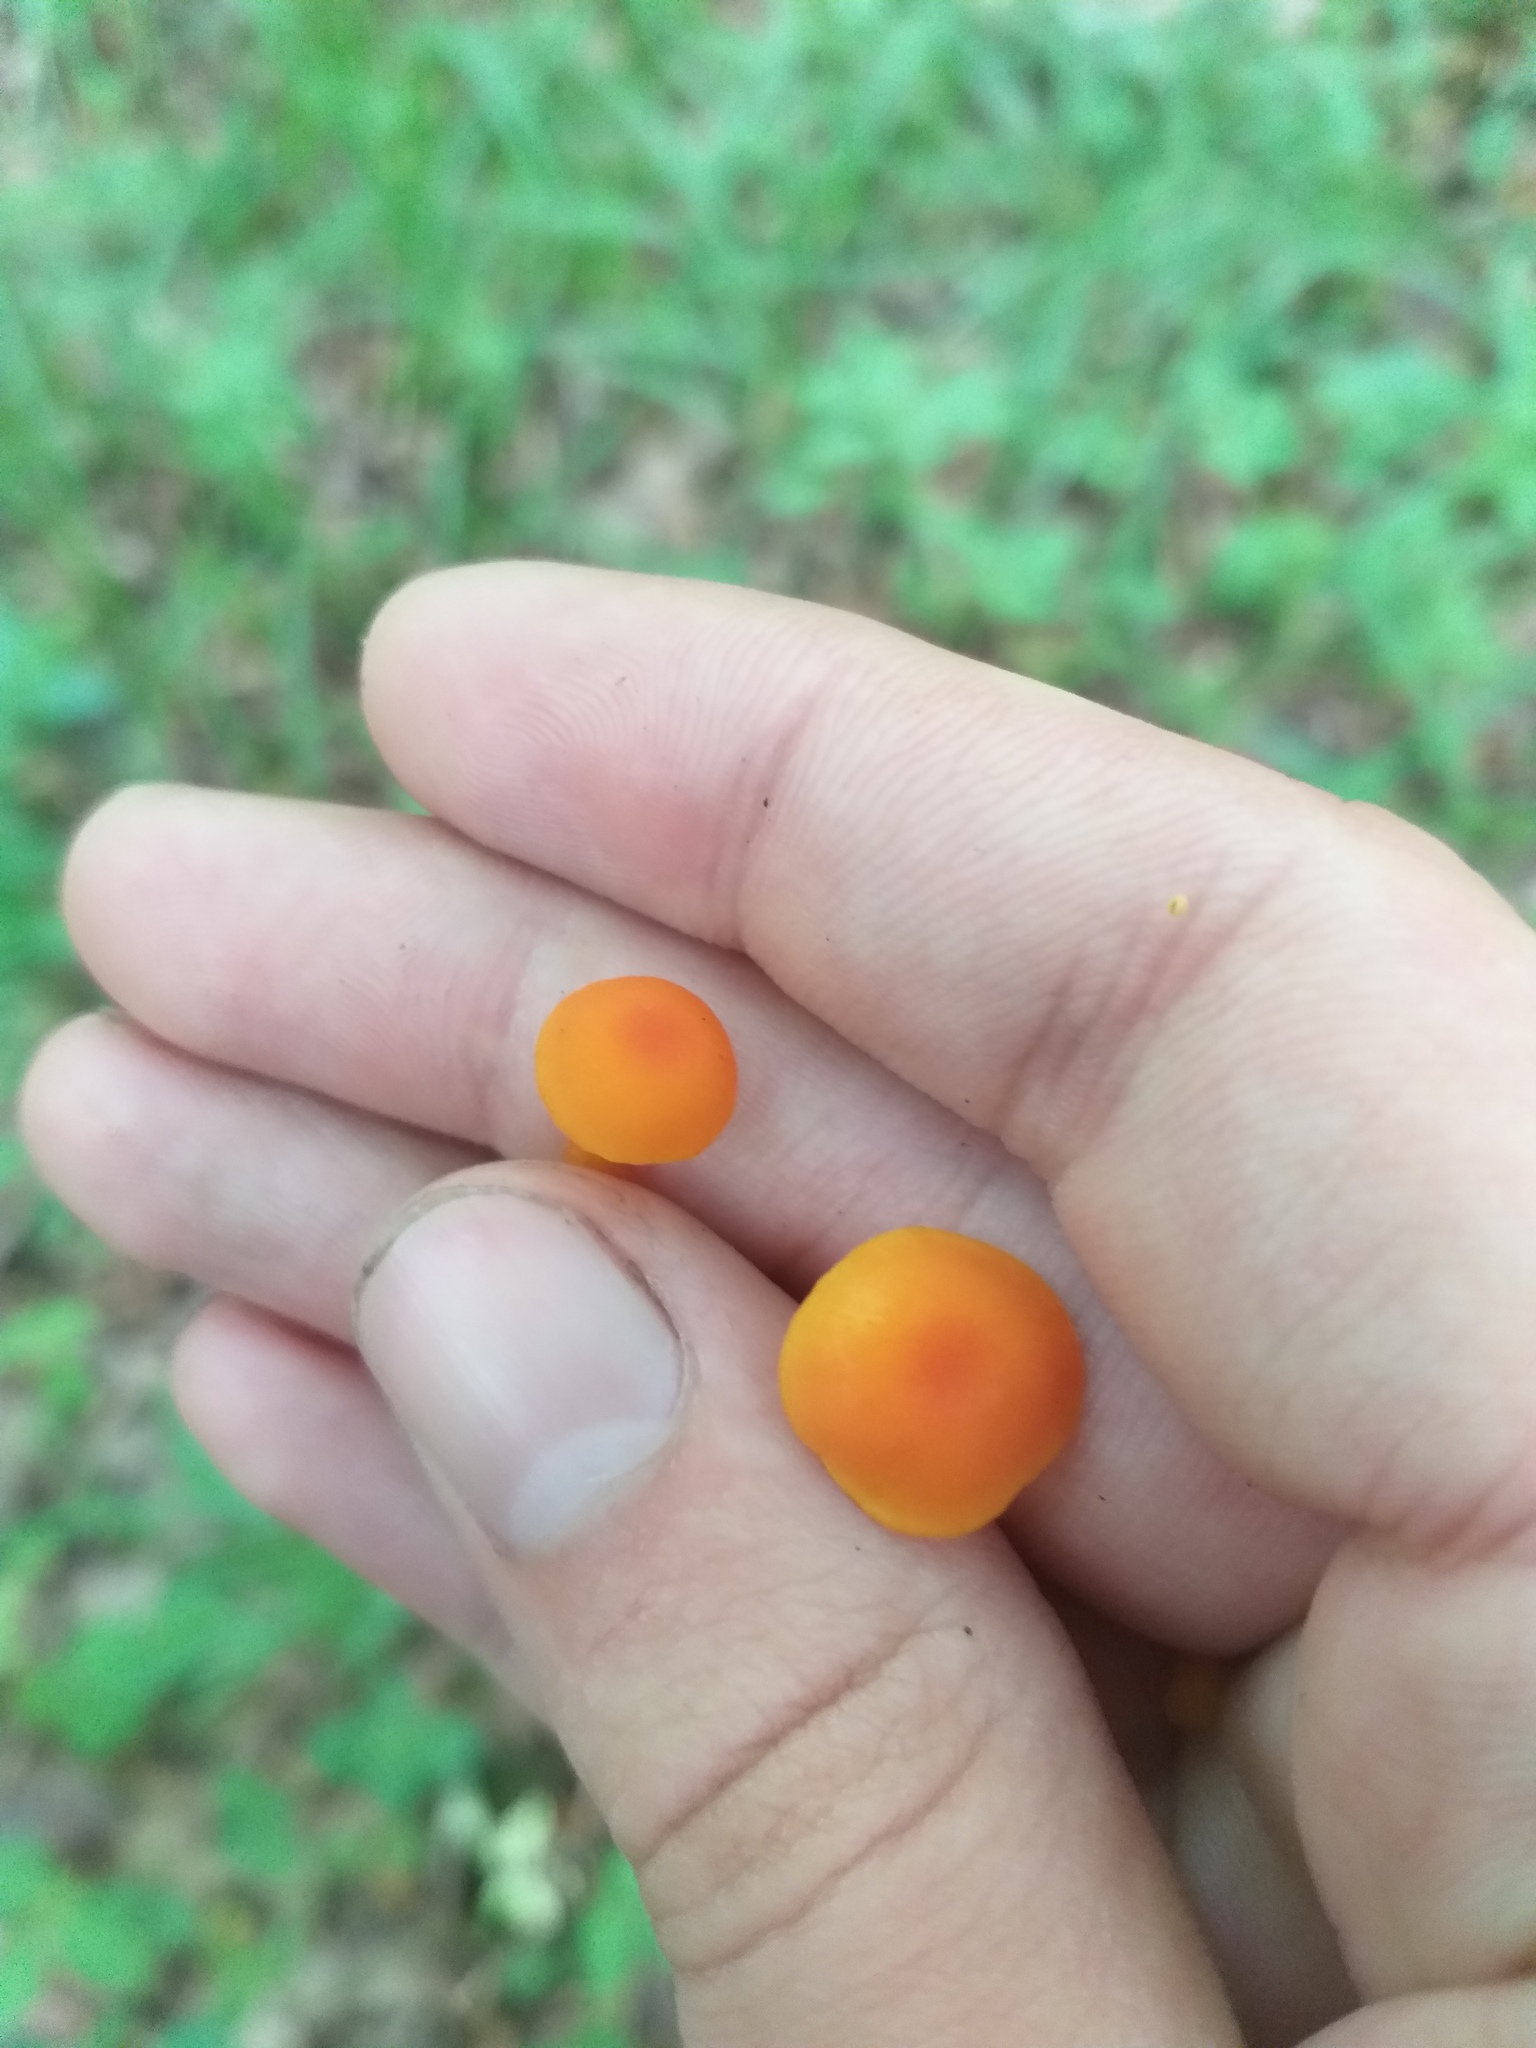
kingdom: Fungi
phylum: Basidiomycota
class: Agaricomycetes
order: Agaricales
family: Hygrophoraceae
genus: Hygrocybe
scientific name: Hygrocybe ceracea
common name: Butter waxcap
